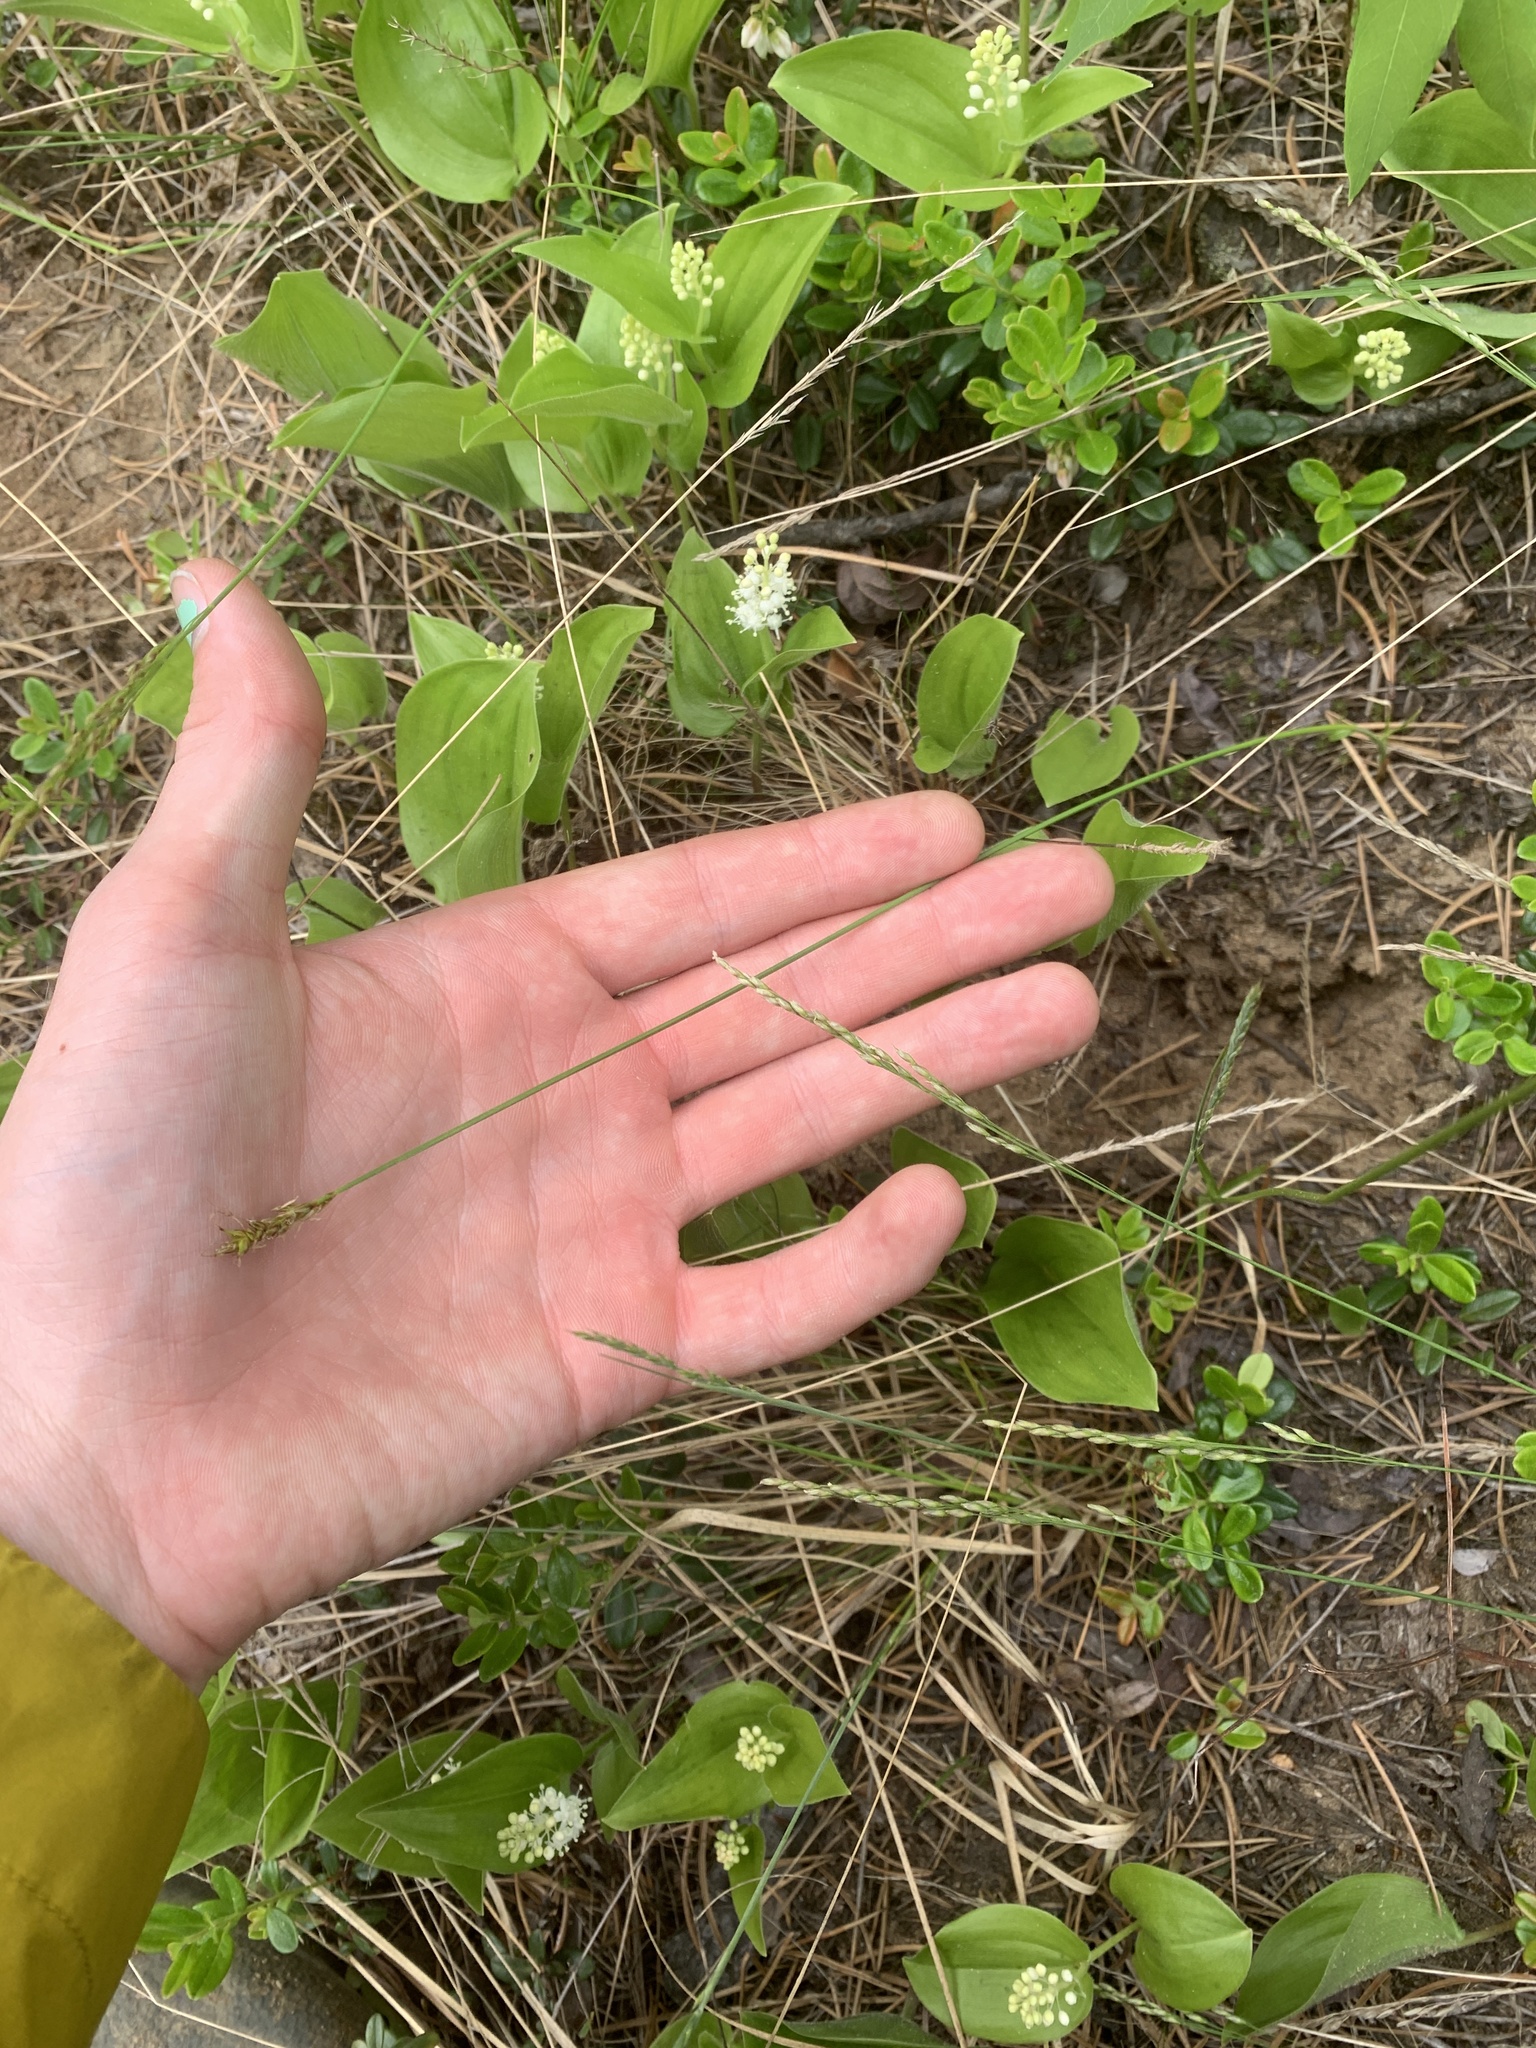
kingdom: Plantae
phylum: Tracheophyta
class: Liliopsida
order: Poales
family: Cyperaceae
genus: Carex
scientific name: Carex siccata
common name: Dry sedge
